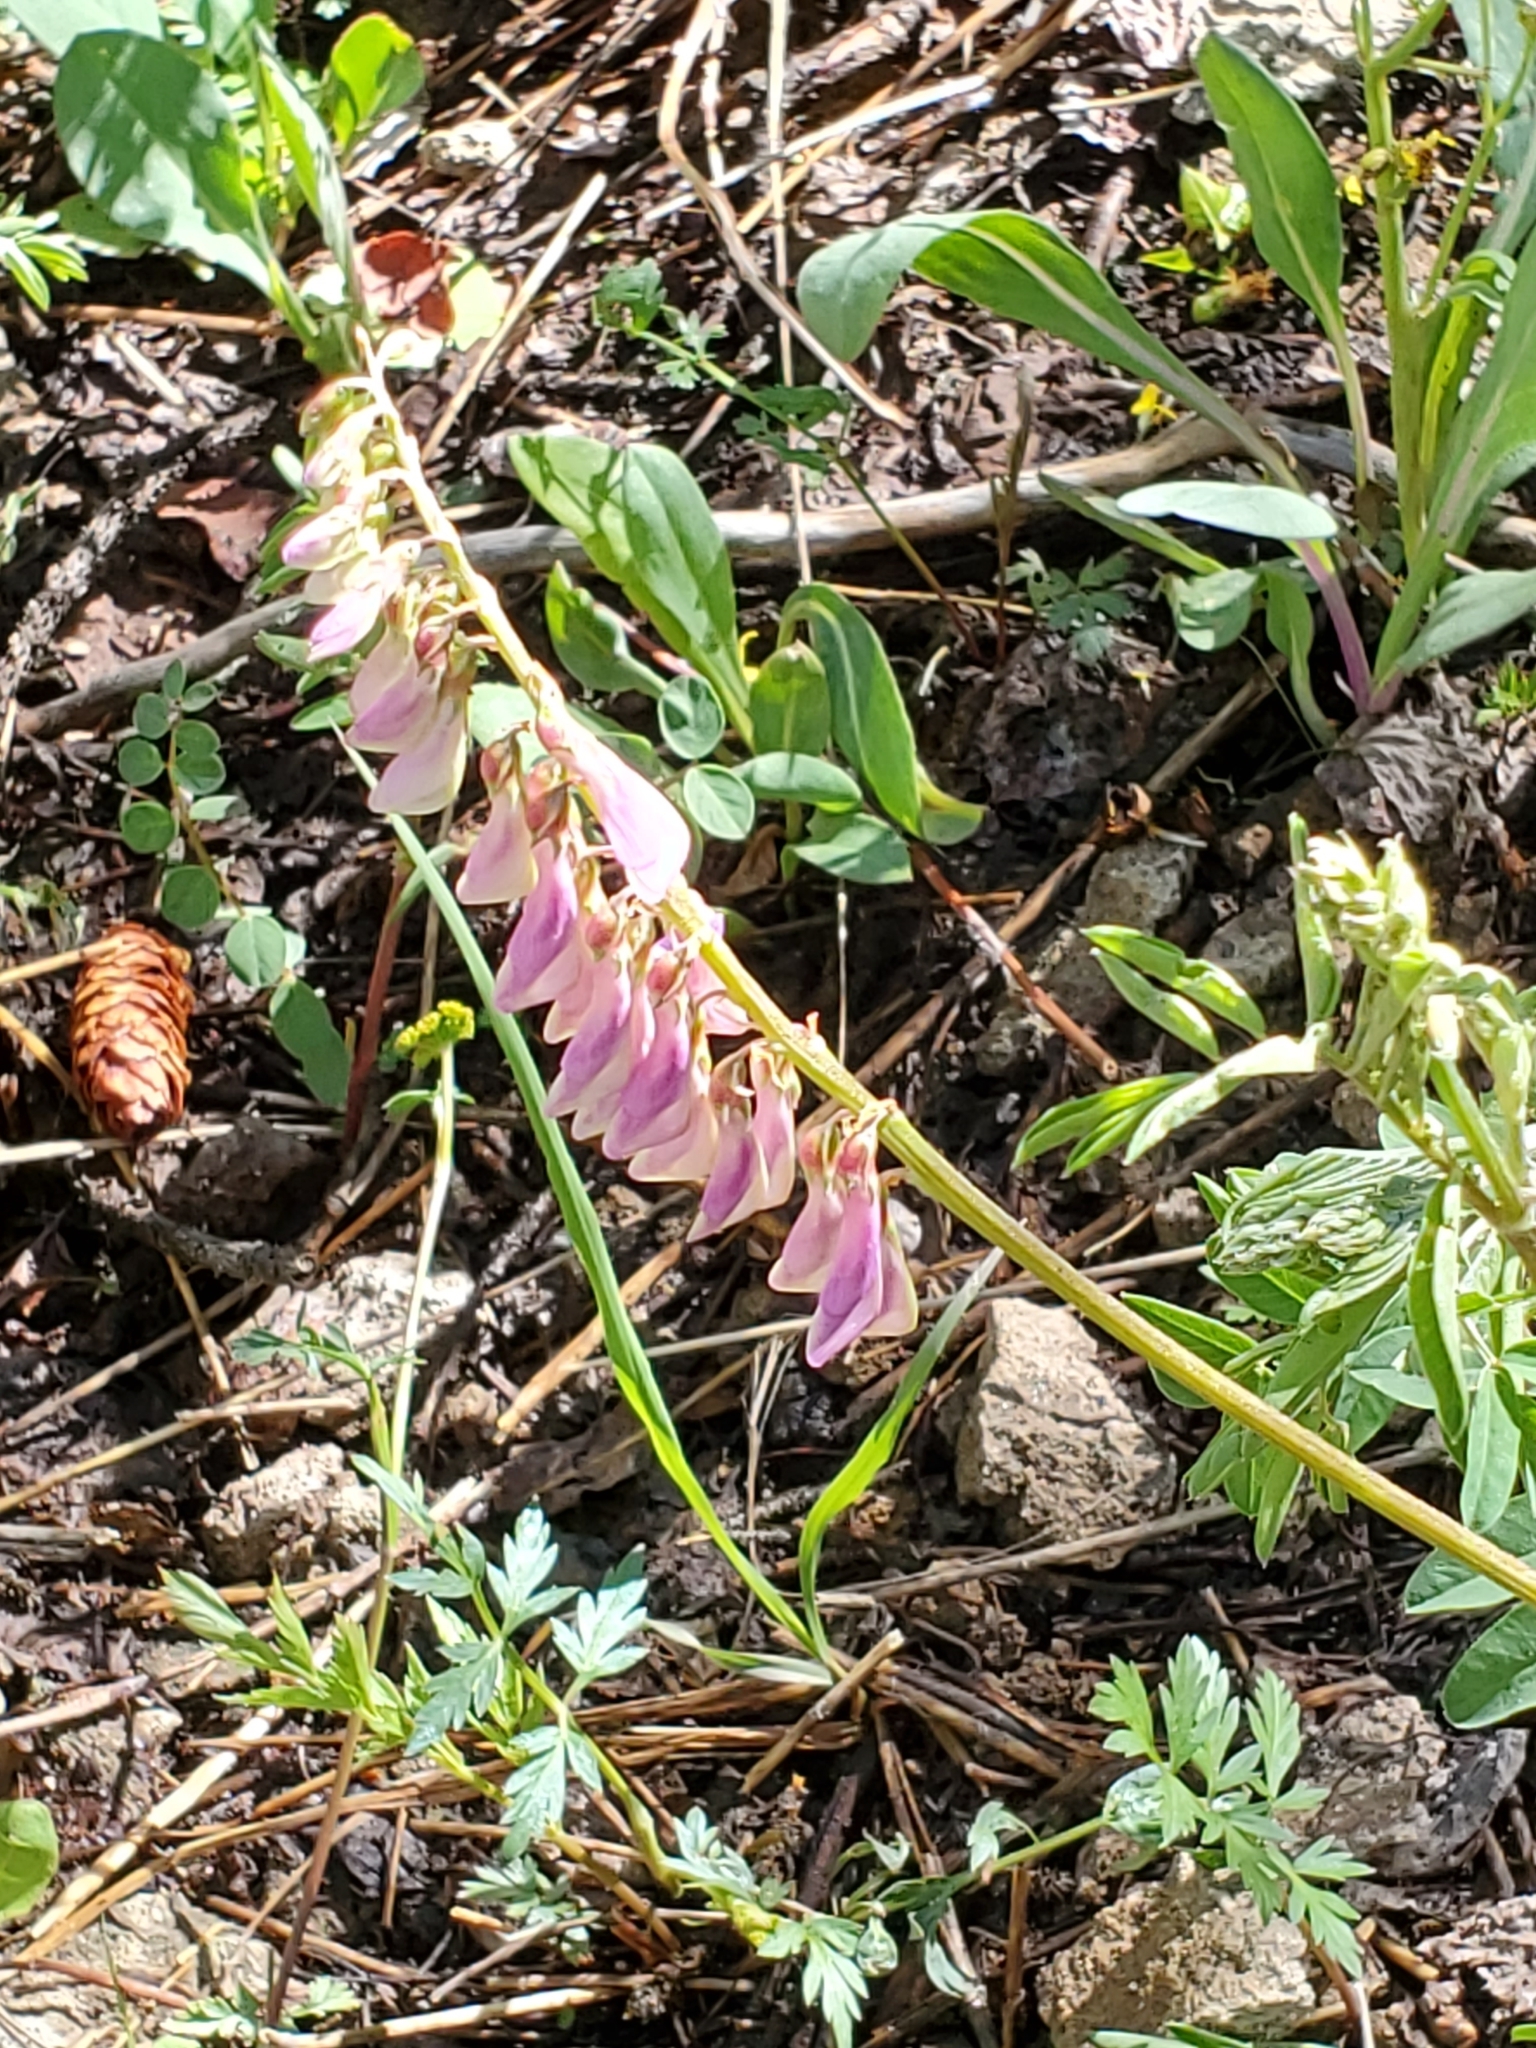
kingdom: Plantae
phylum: Tracheophyta
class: Magnoliopsida
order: Fabales
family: Fabaceae
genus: Hedysarum
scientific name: Hedysarum occidentale
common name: Western hedysarum
